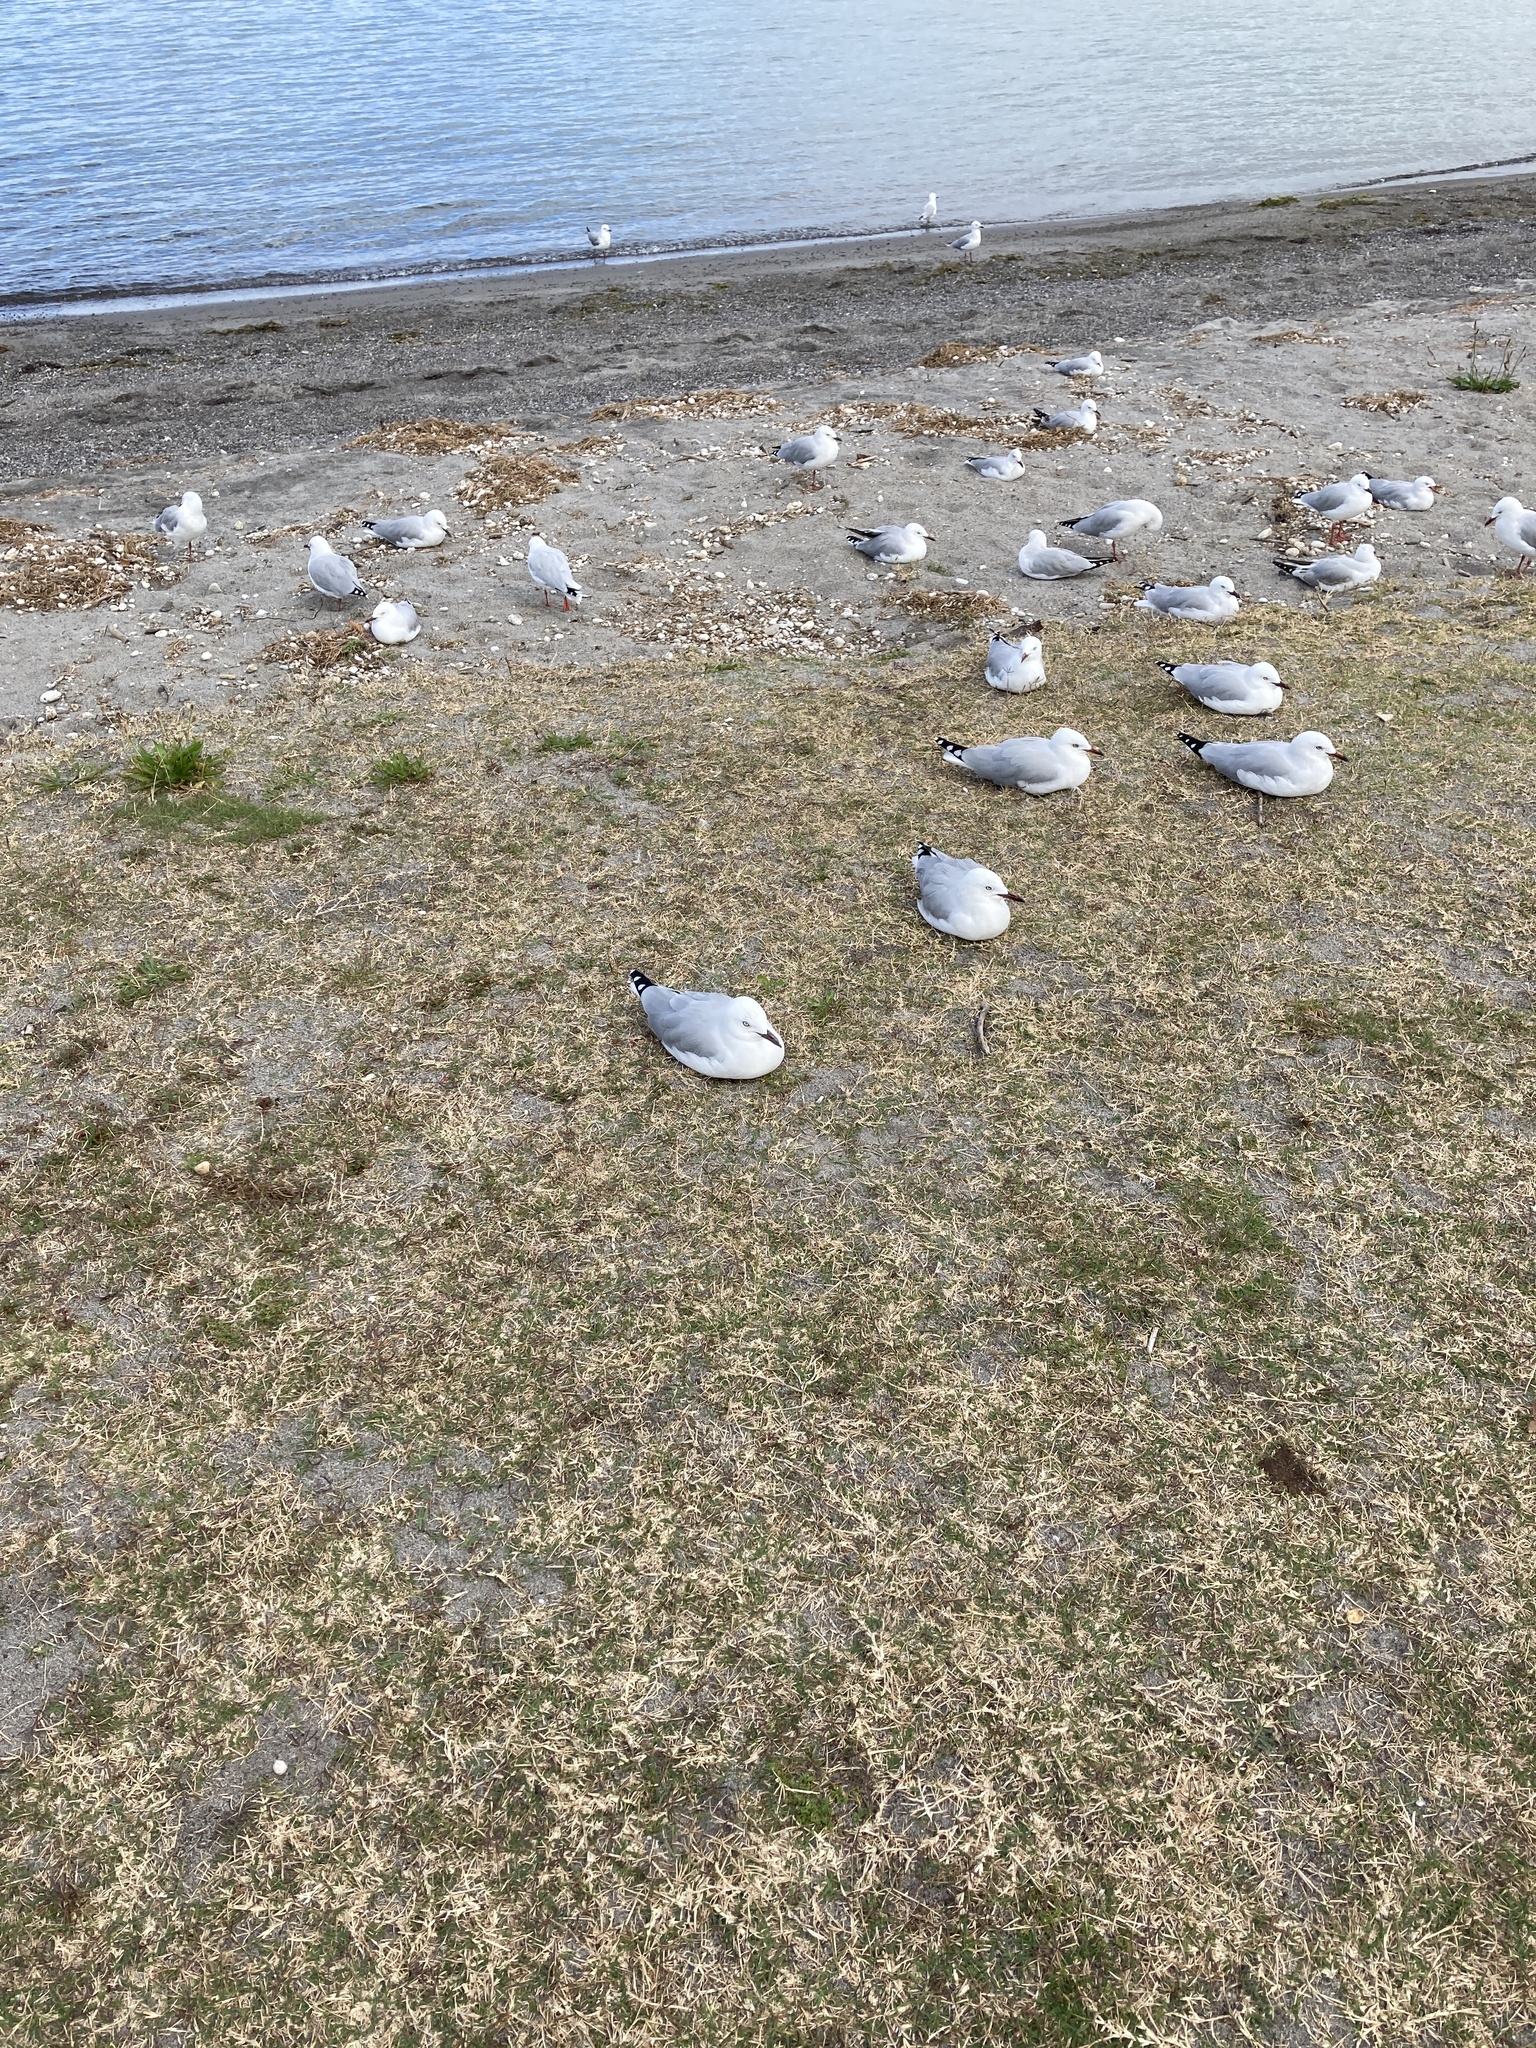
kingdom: Animalia
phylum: Chordata
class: Aves
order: Charadriiformes
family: Laridae
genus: Chroicocephalus
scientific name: Chroicocephalus novaehollandiae
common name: Silver gull
